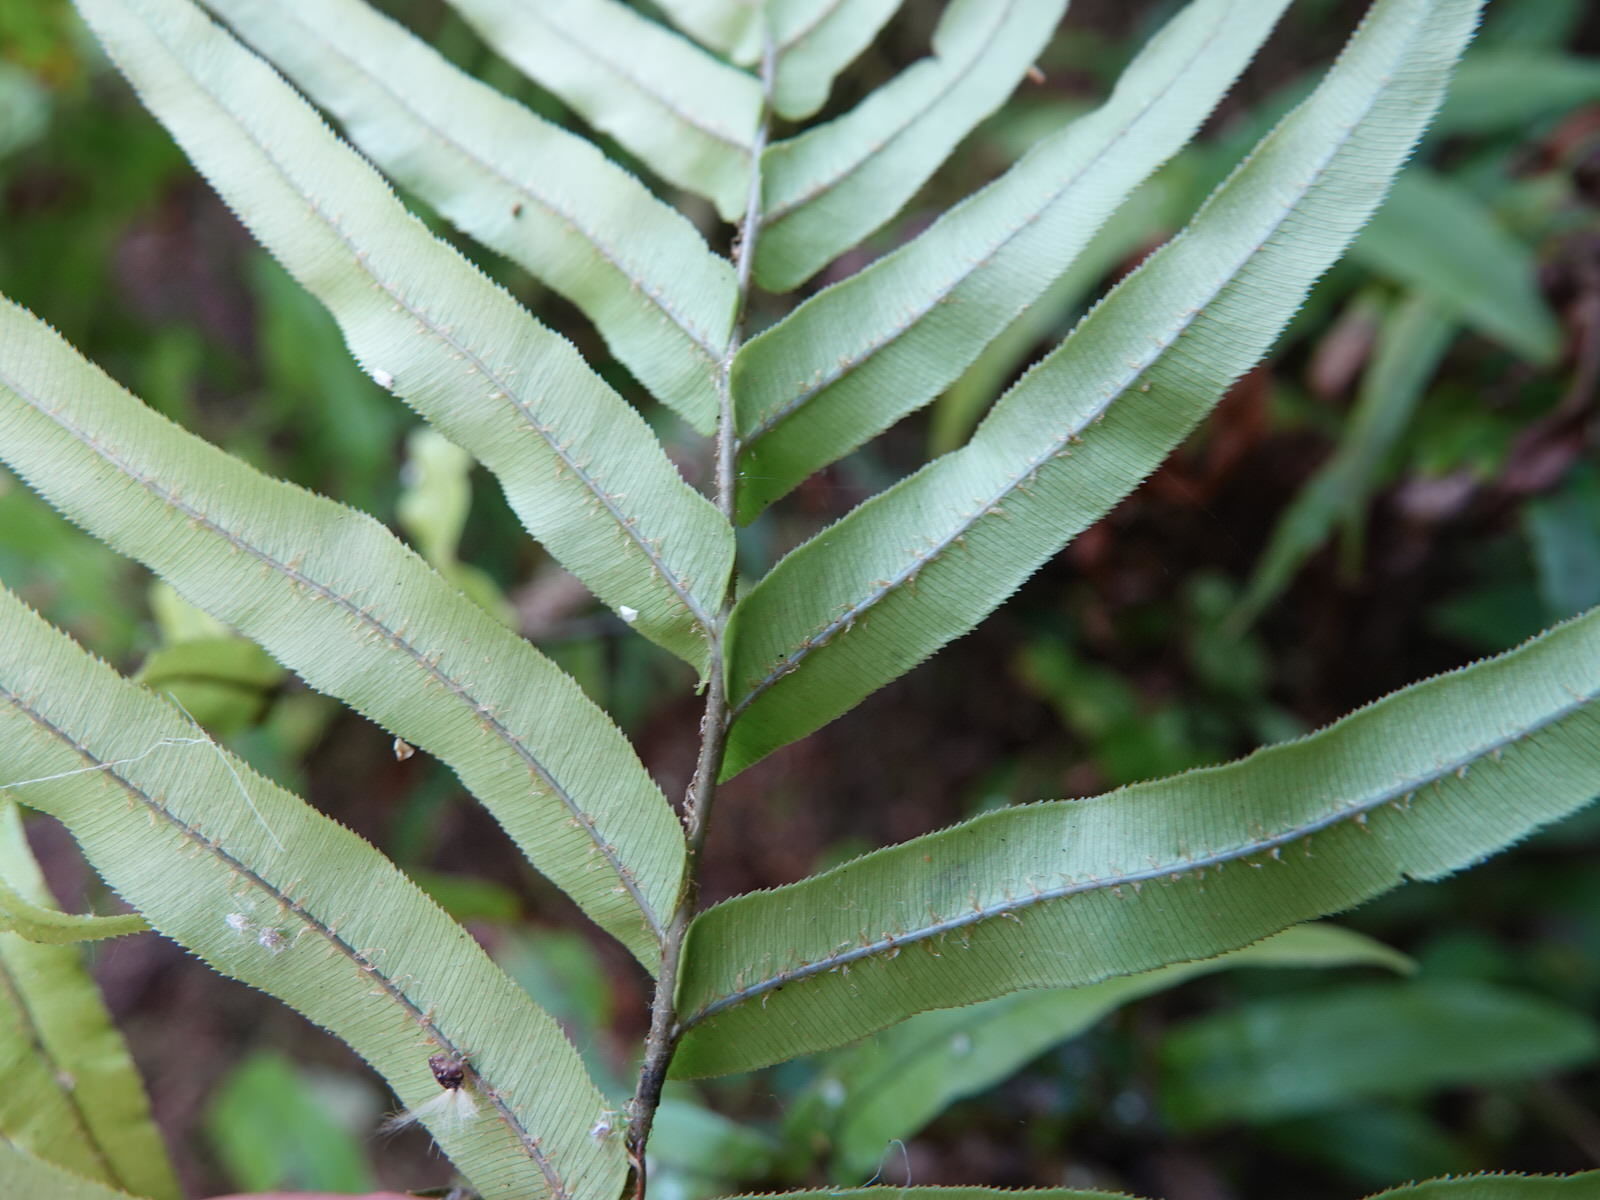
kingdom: Plantae
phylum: Tracheophyta
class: Polypodiopsida
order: Polypodiales
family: Blechnaceae
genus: Parablechnum
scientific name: Parablechnum minus
